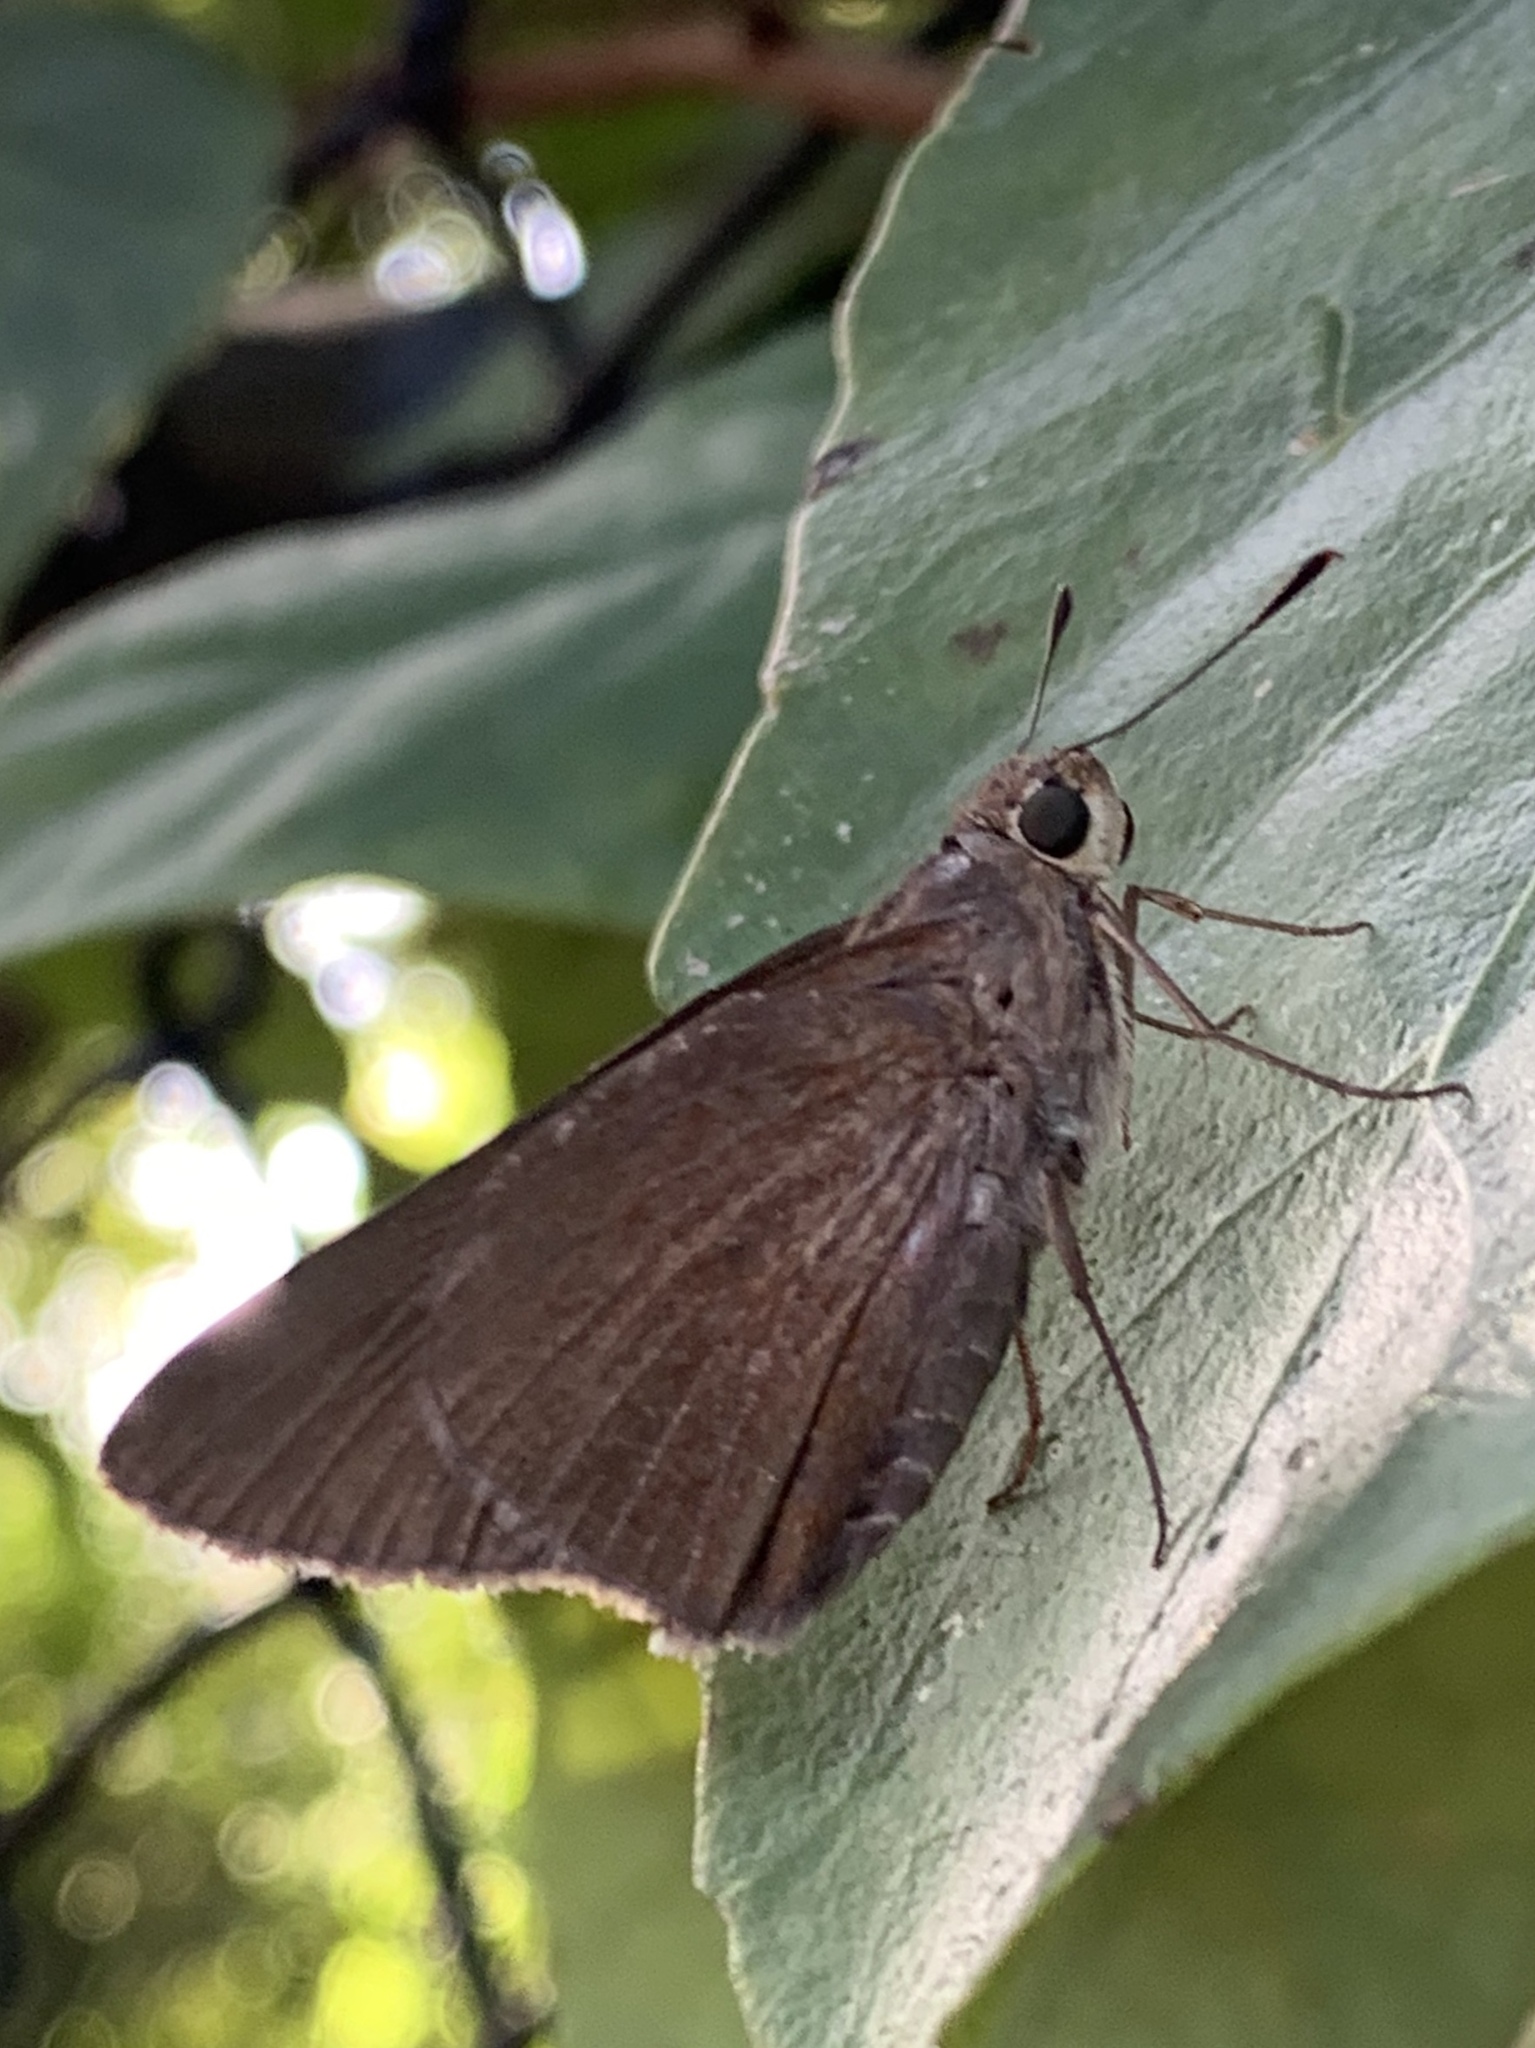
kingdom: Animalia
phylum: Arthropoda
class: Insecta
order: Lepidoptera
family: Hesperiidae
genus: Asbolis
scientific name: Asbolis capucinus
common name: Monk skipper
